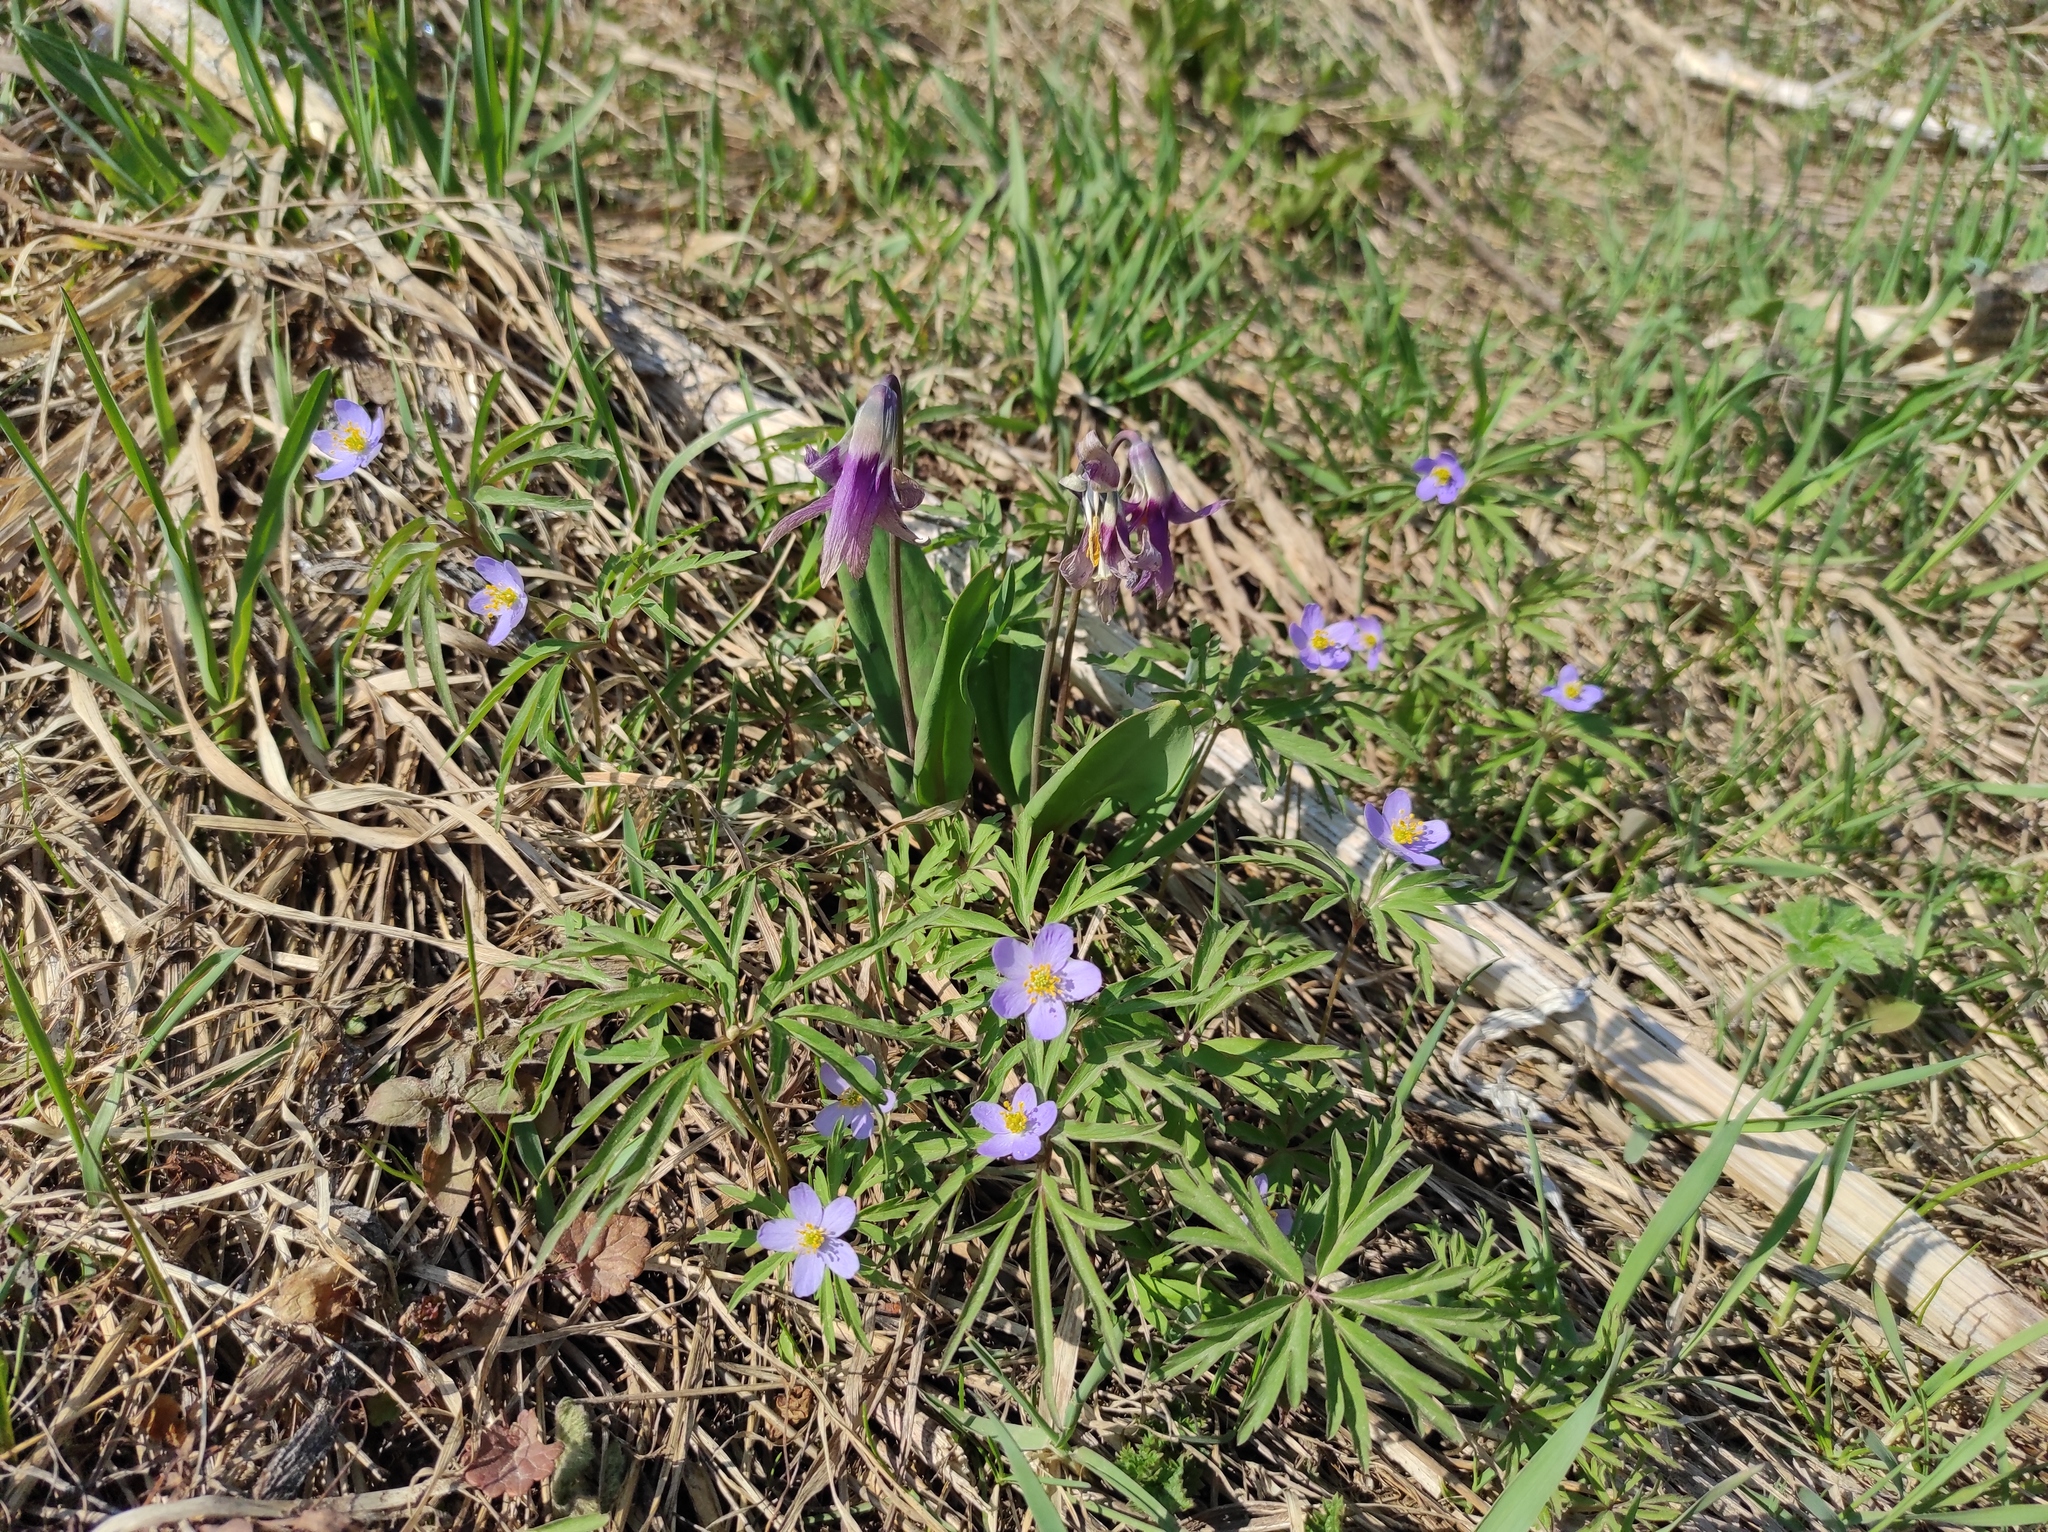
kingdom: Plantae
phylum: Tracheophyta
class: Liliopsida
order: Liliales
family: Liliaceae
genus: Erythronium
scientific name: Erythronium sibiricum
